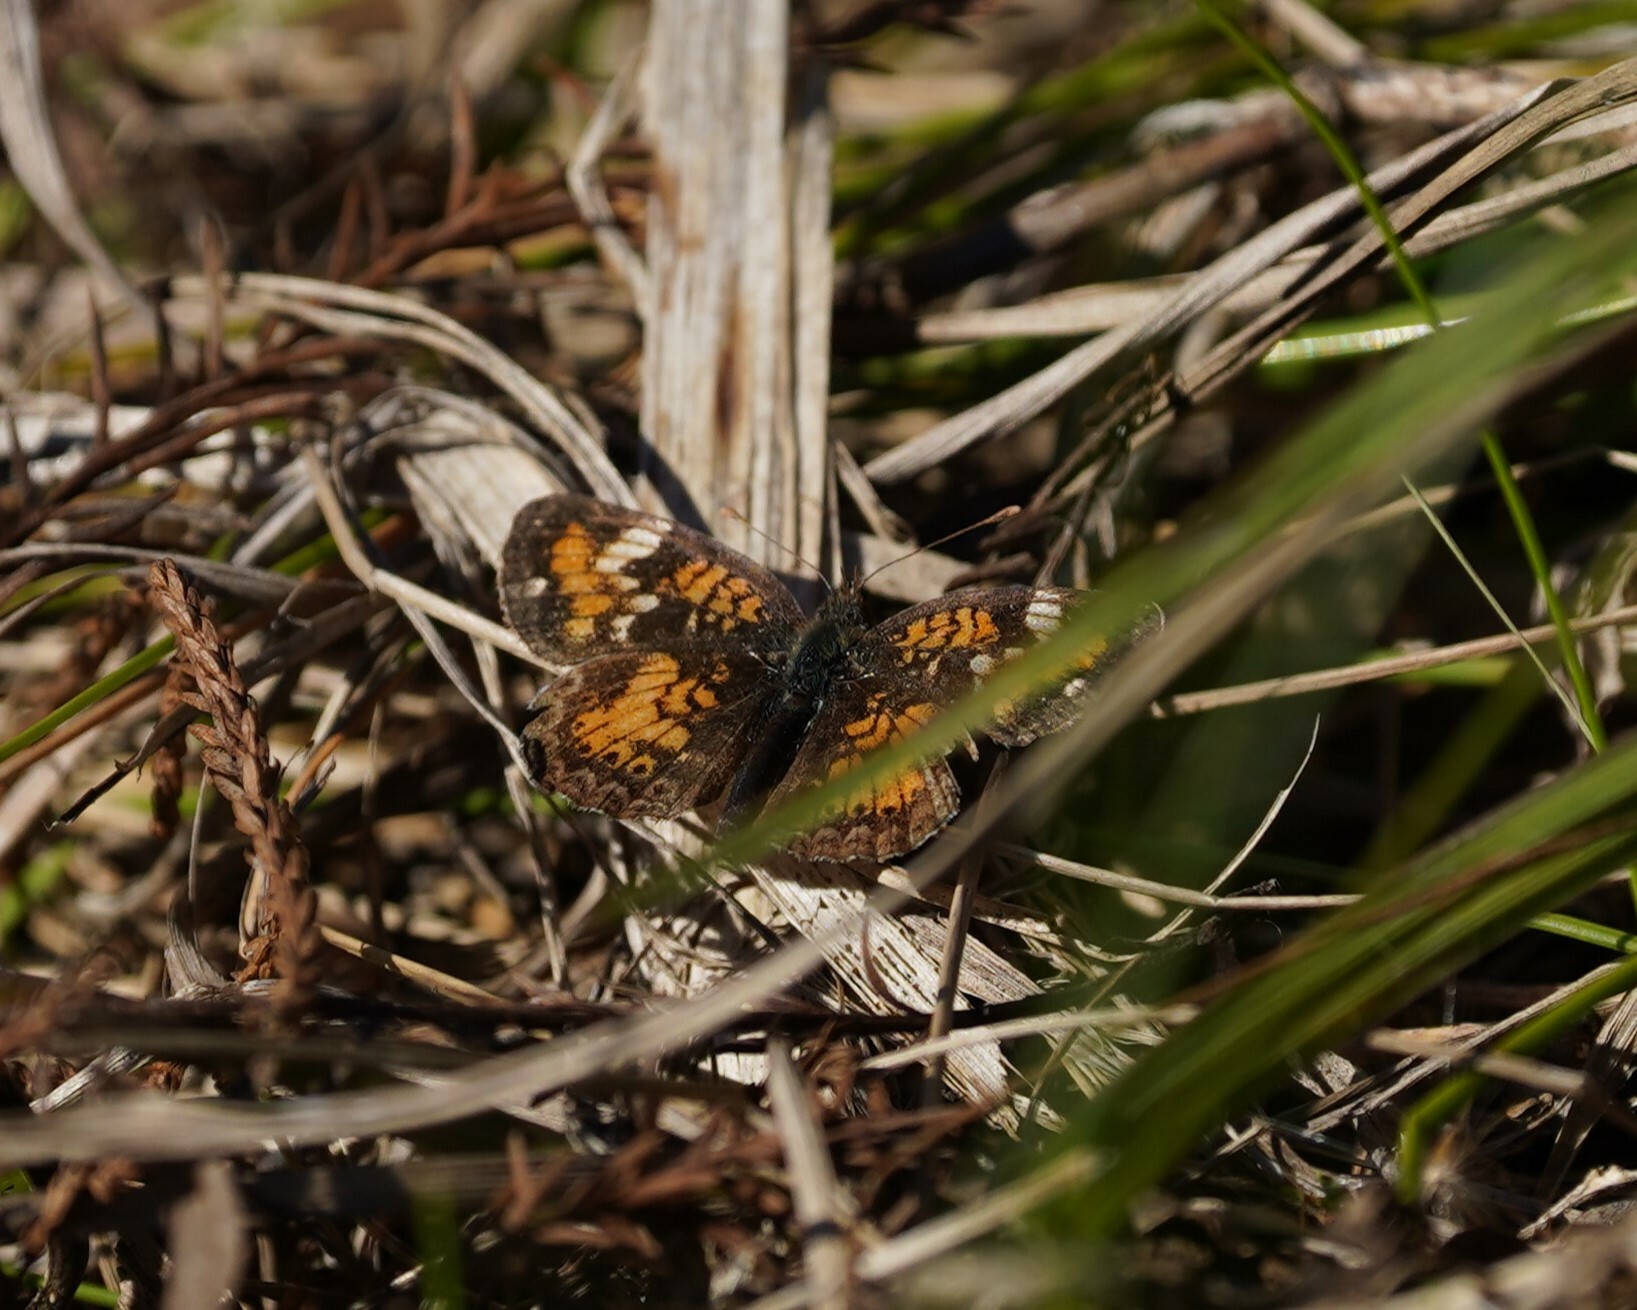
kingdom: Animalia
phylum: Arthropoda
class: Insecta
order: Lepidoptera
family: Nymphalidae
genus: Phyciodes
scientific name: Phyciodes phaon
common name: Phaon crescent
